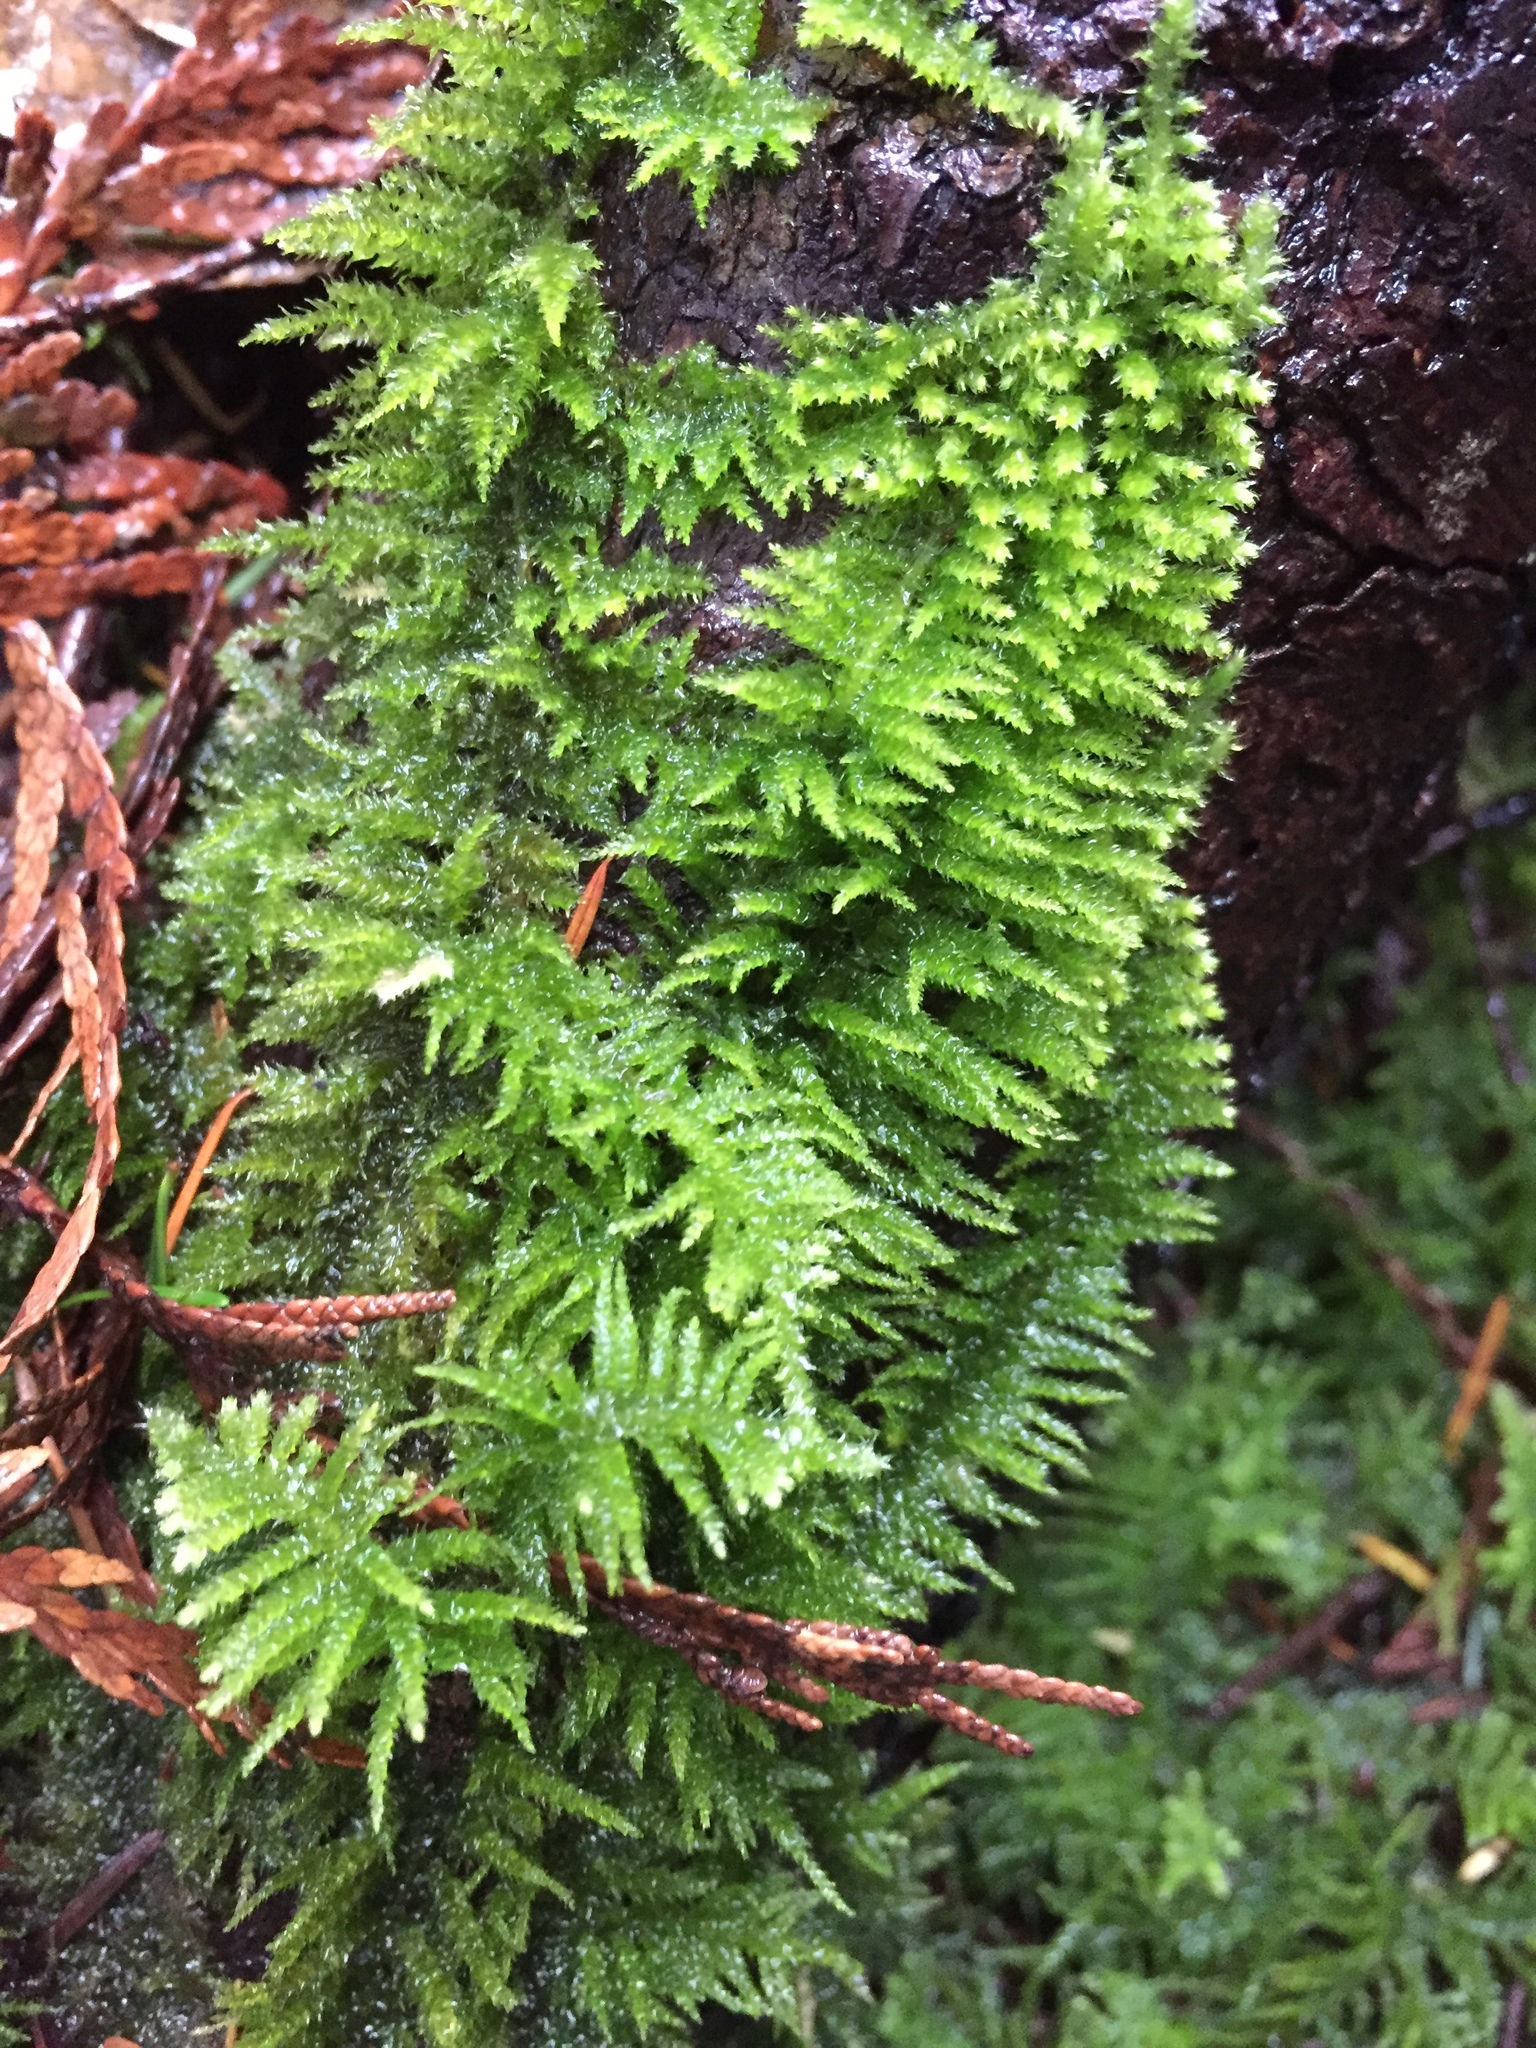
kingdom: Plantae
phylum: Bryophyta
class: Bryopsida
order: Hypnales
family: Brachytheciaceae
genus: Kindbergia
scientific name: Kindbergia oregana
